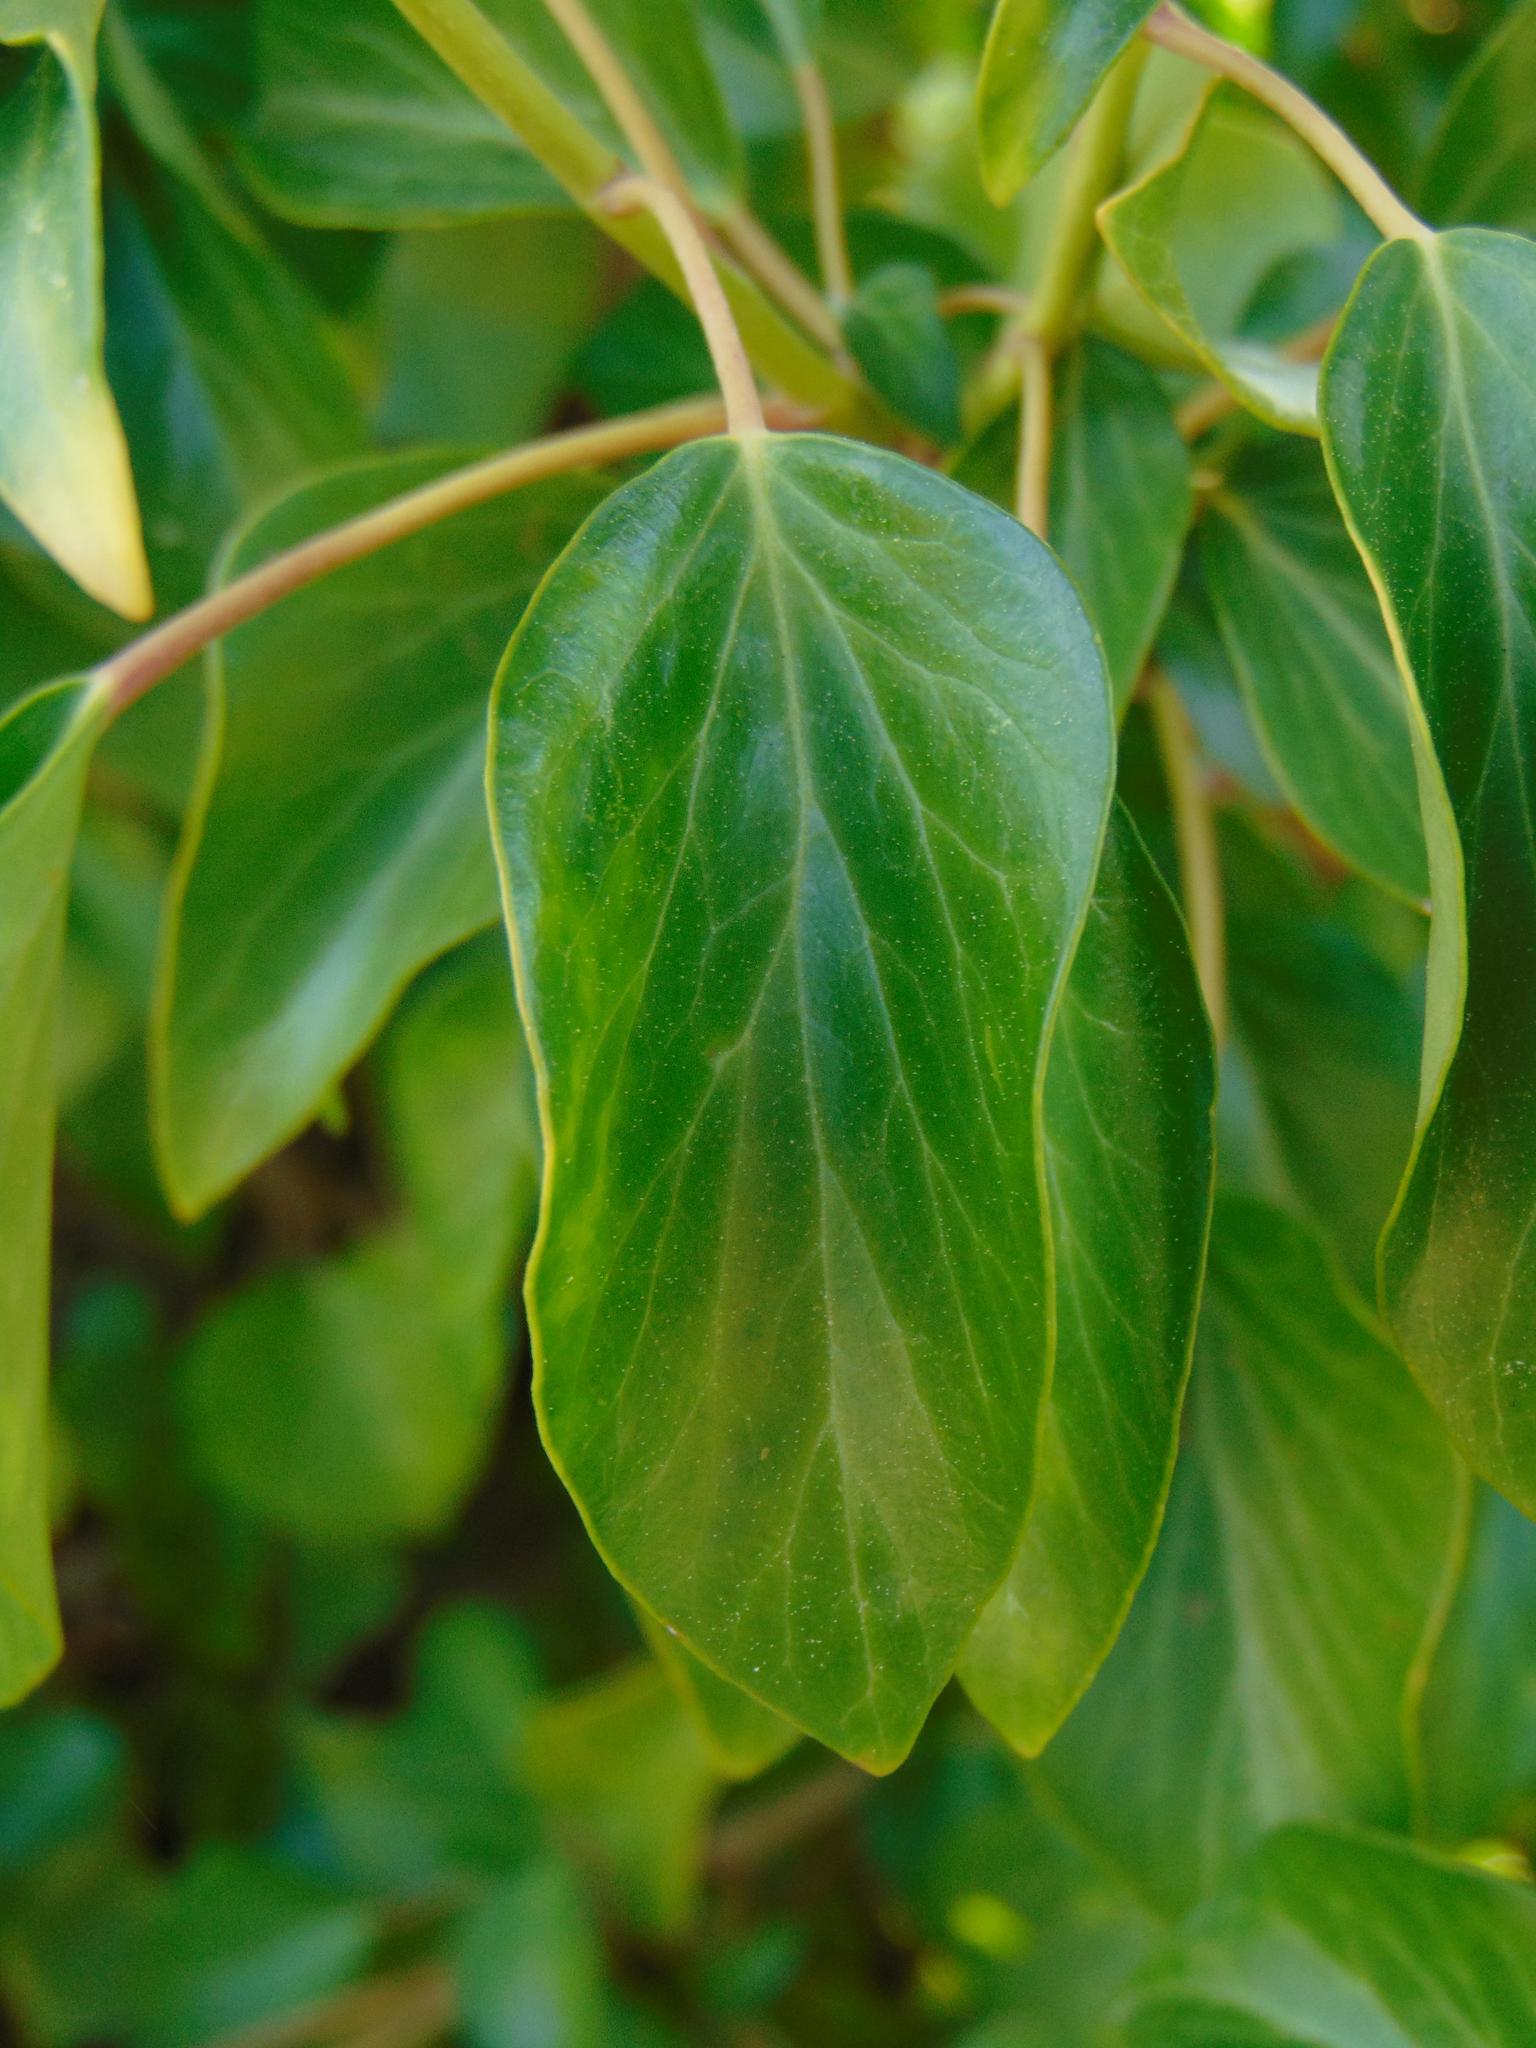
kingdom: Plantae
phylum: Tracheophyta
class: Magnoliopsida
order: Apiales
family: Araliaceae
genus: Hedera
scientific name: Hedera helix
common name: Ivy
